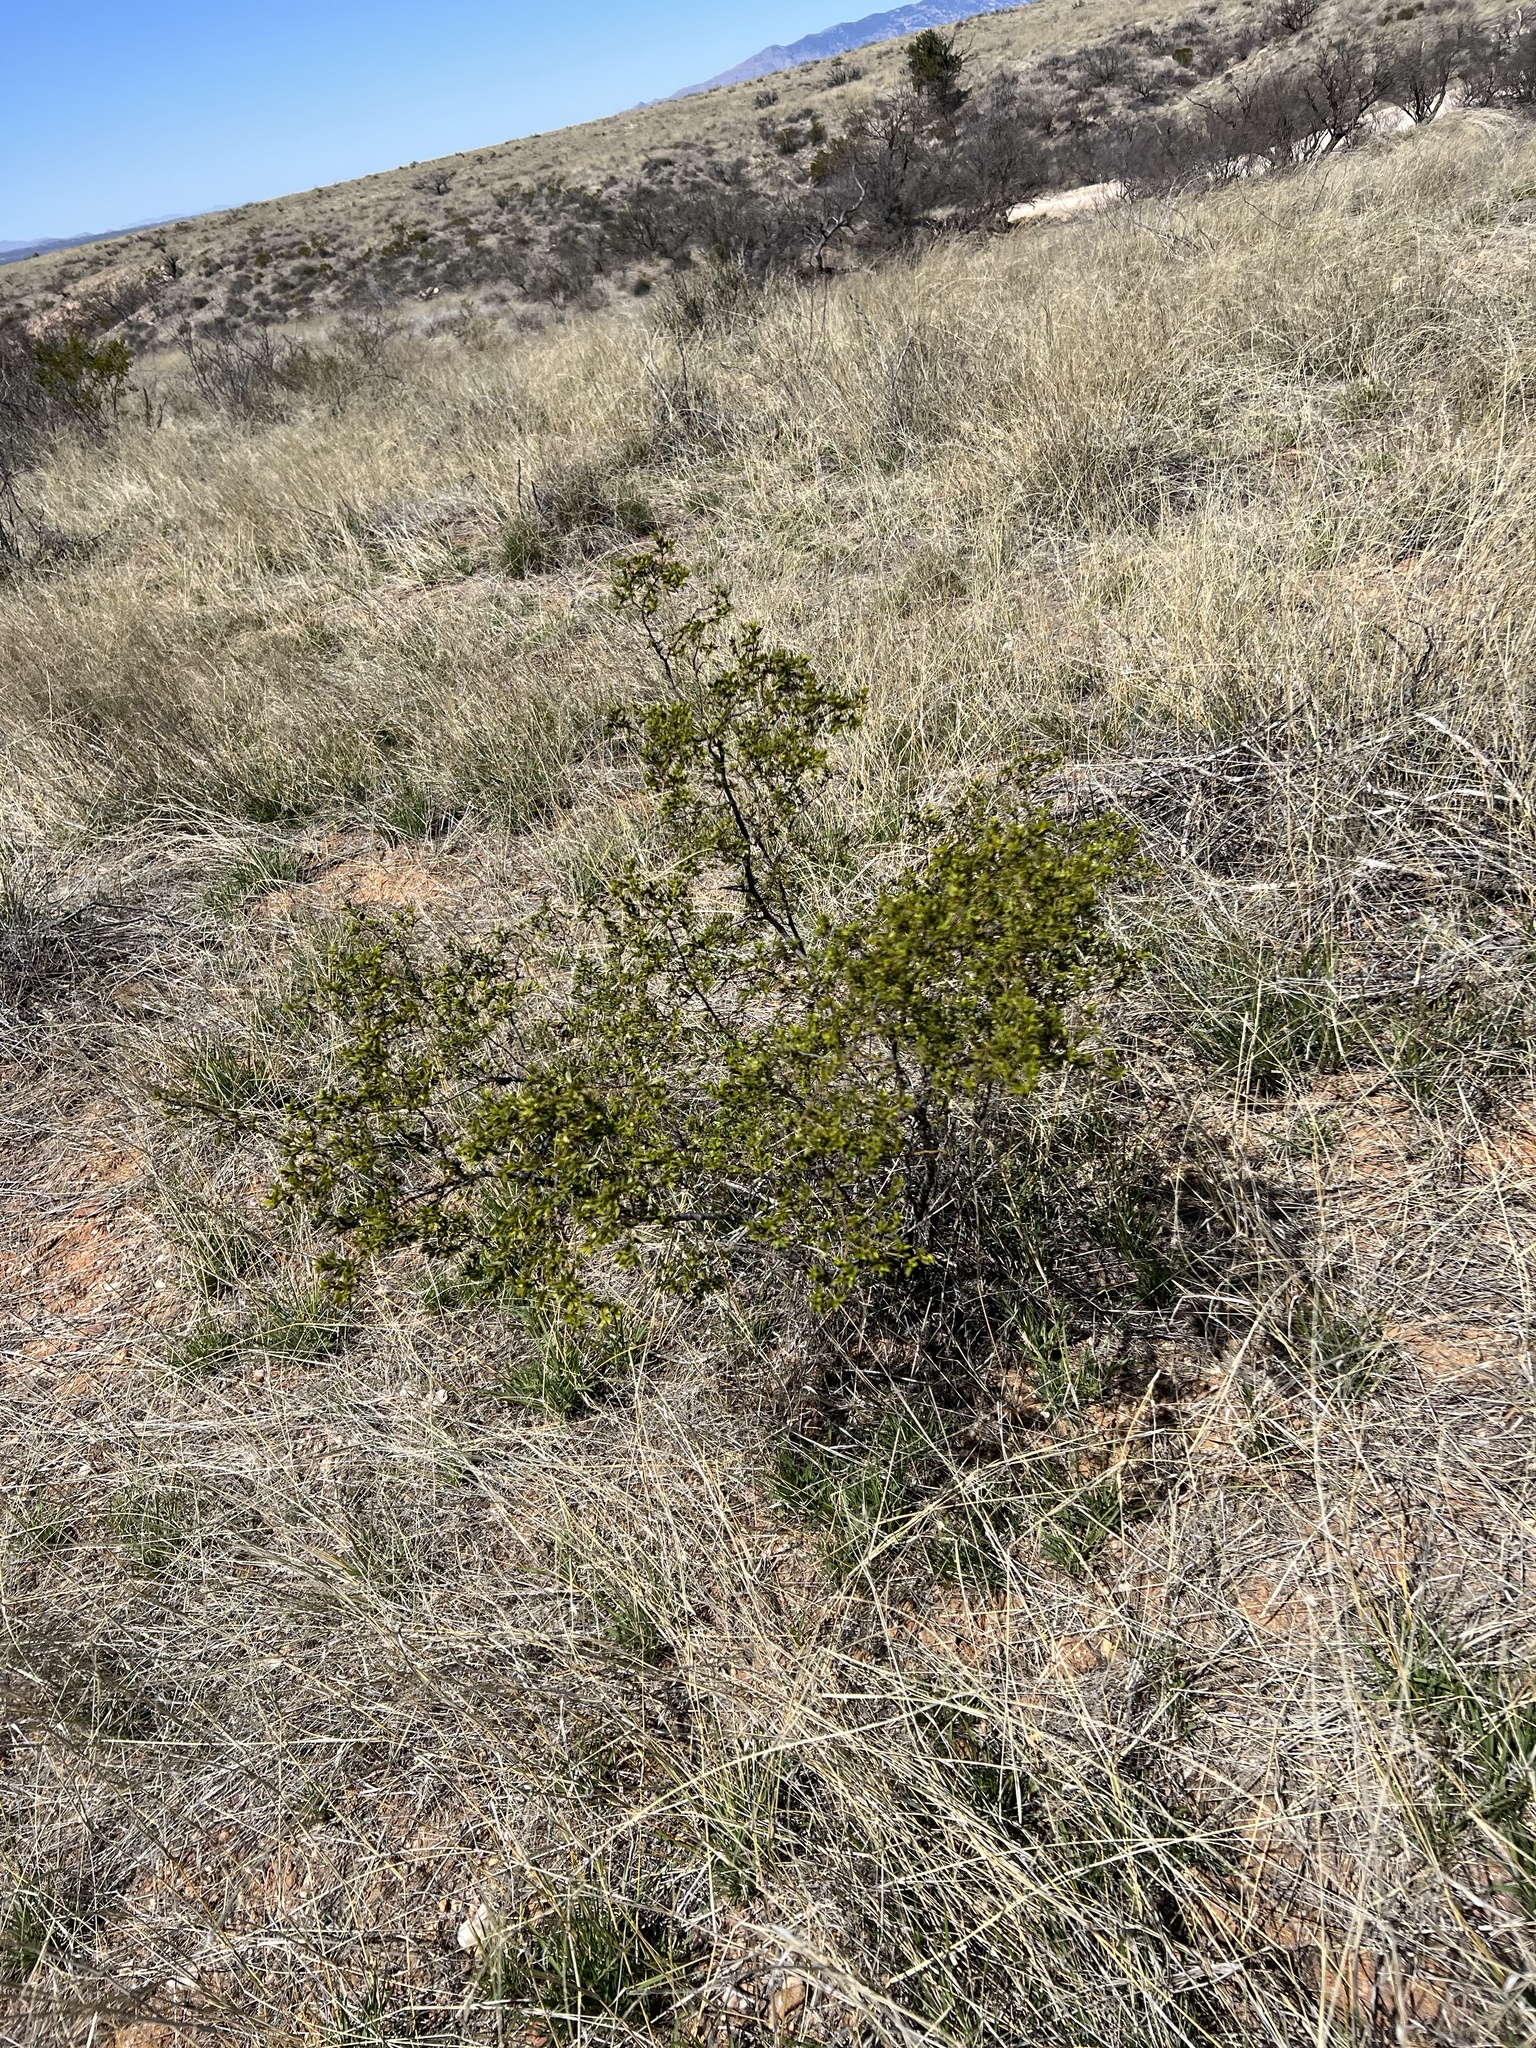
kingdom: Plantae
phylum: Tracheophyta
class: Magnoliopsida
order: Zygophyllales
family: Zygophyllaceae
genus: Larrea
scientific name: Larrea tridentata
